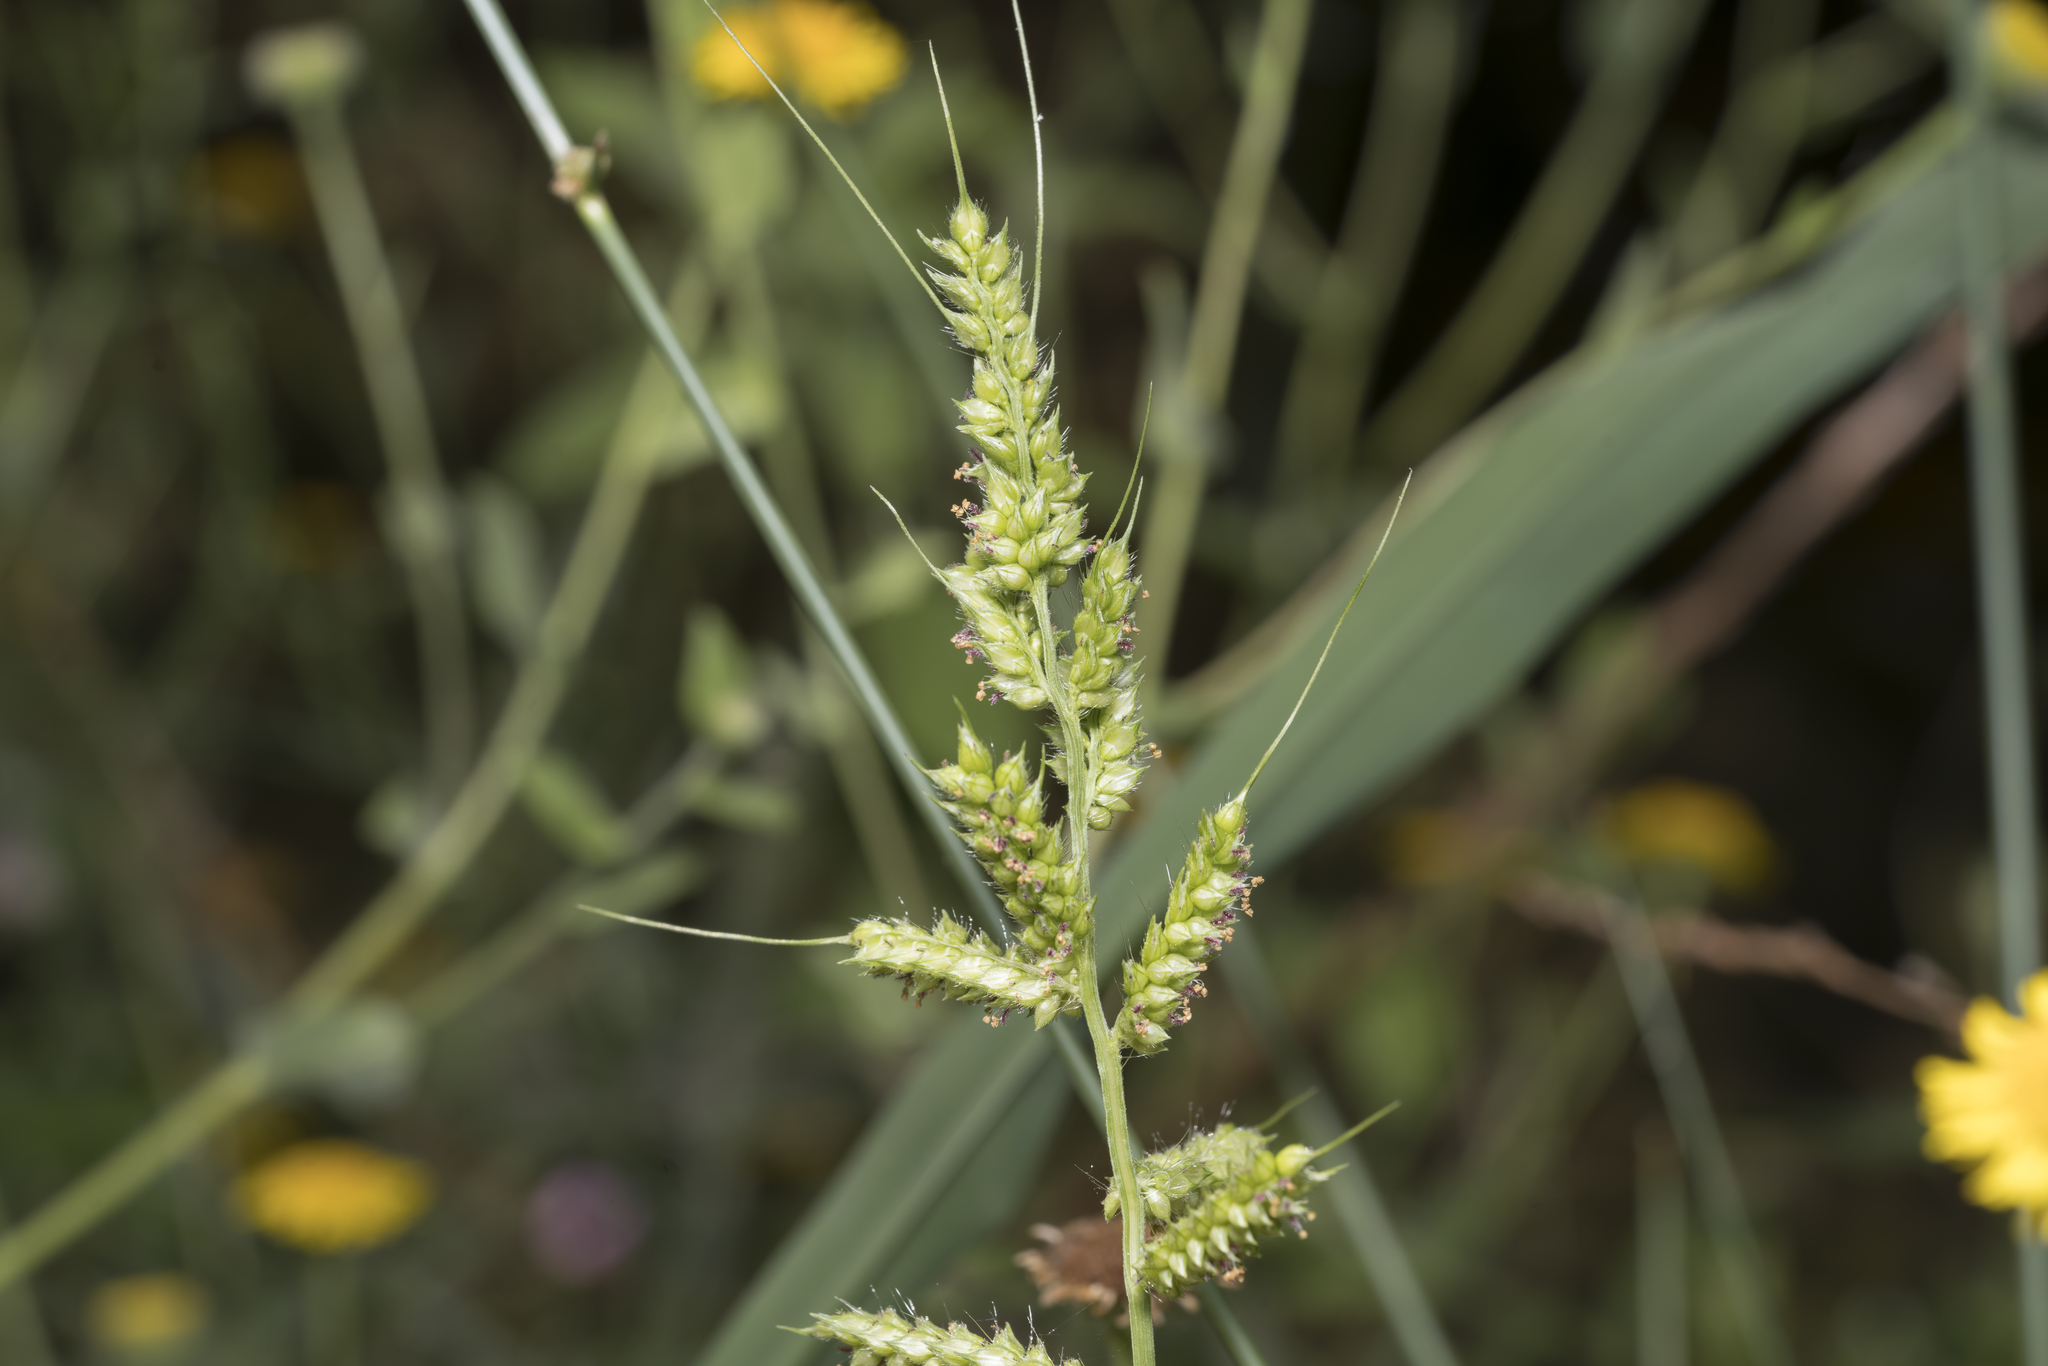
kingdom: Plantae
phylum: Tracheophyta
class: Liliopsida
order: Poales
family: Poaceae
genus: Echinochloa
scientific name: Echinochloa crus-galli
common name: Cockspur
